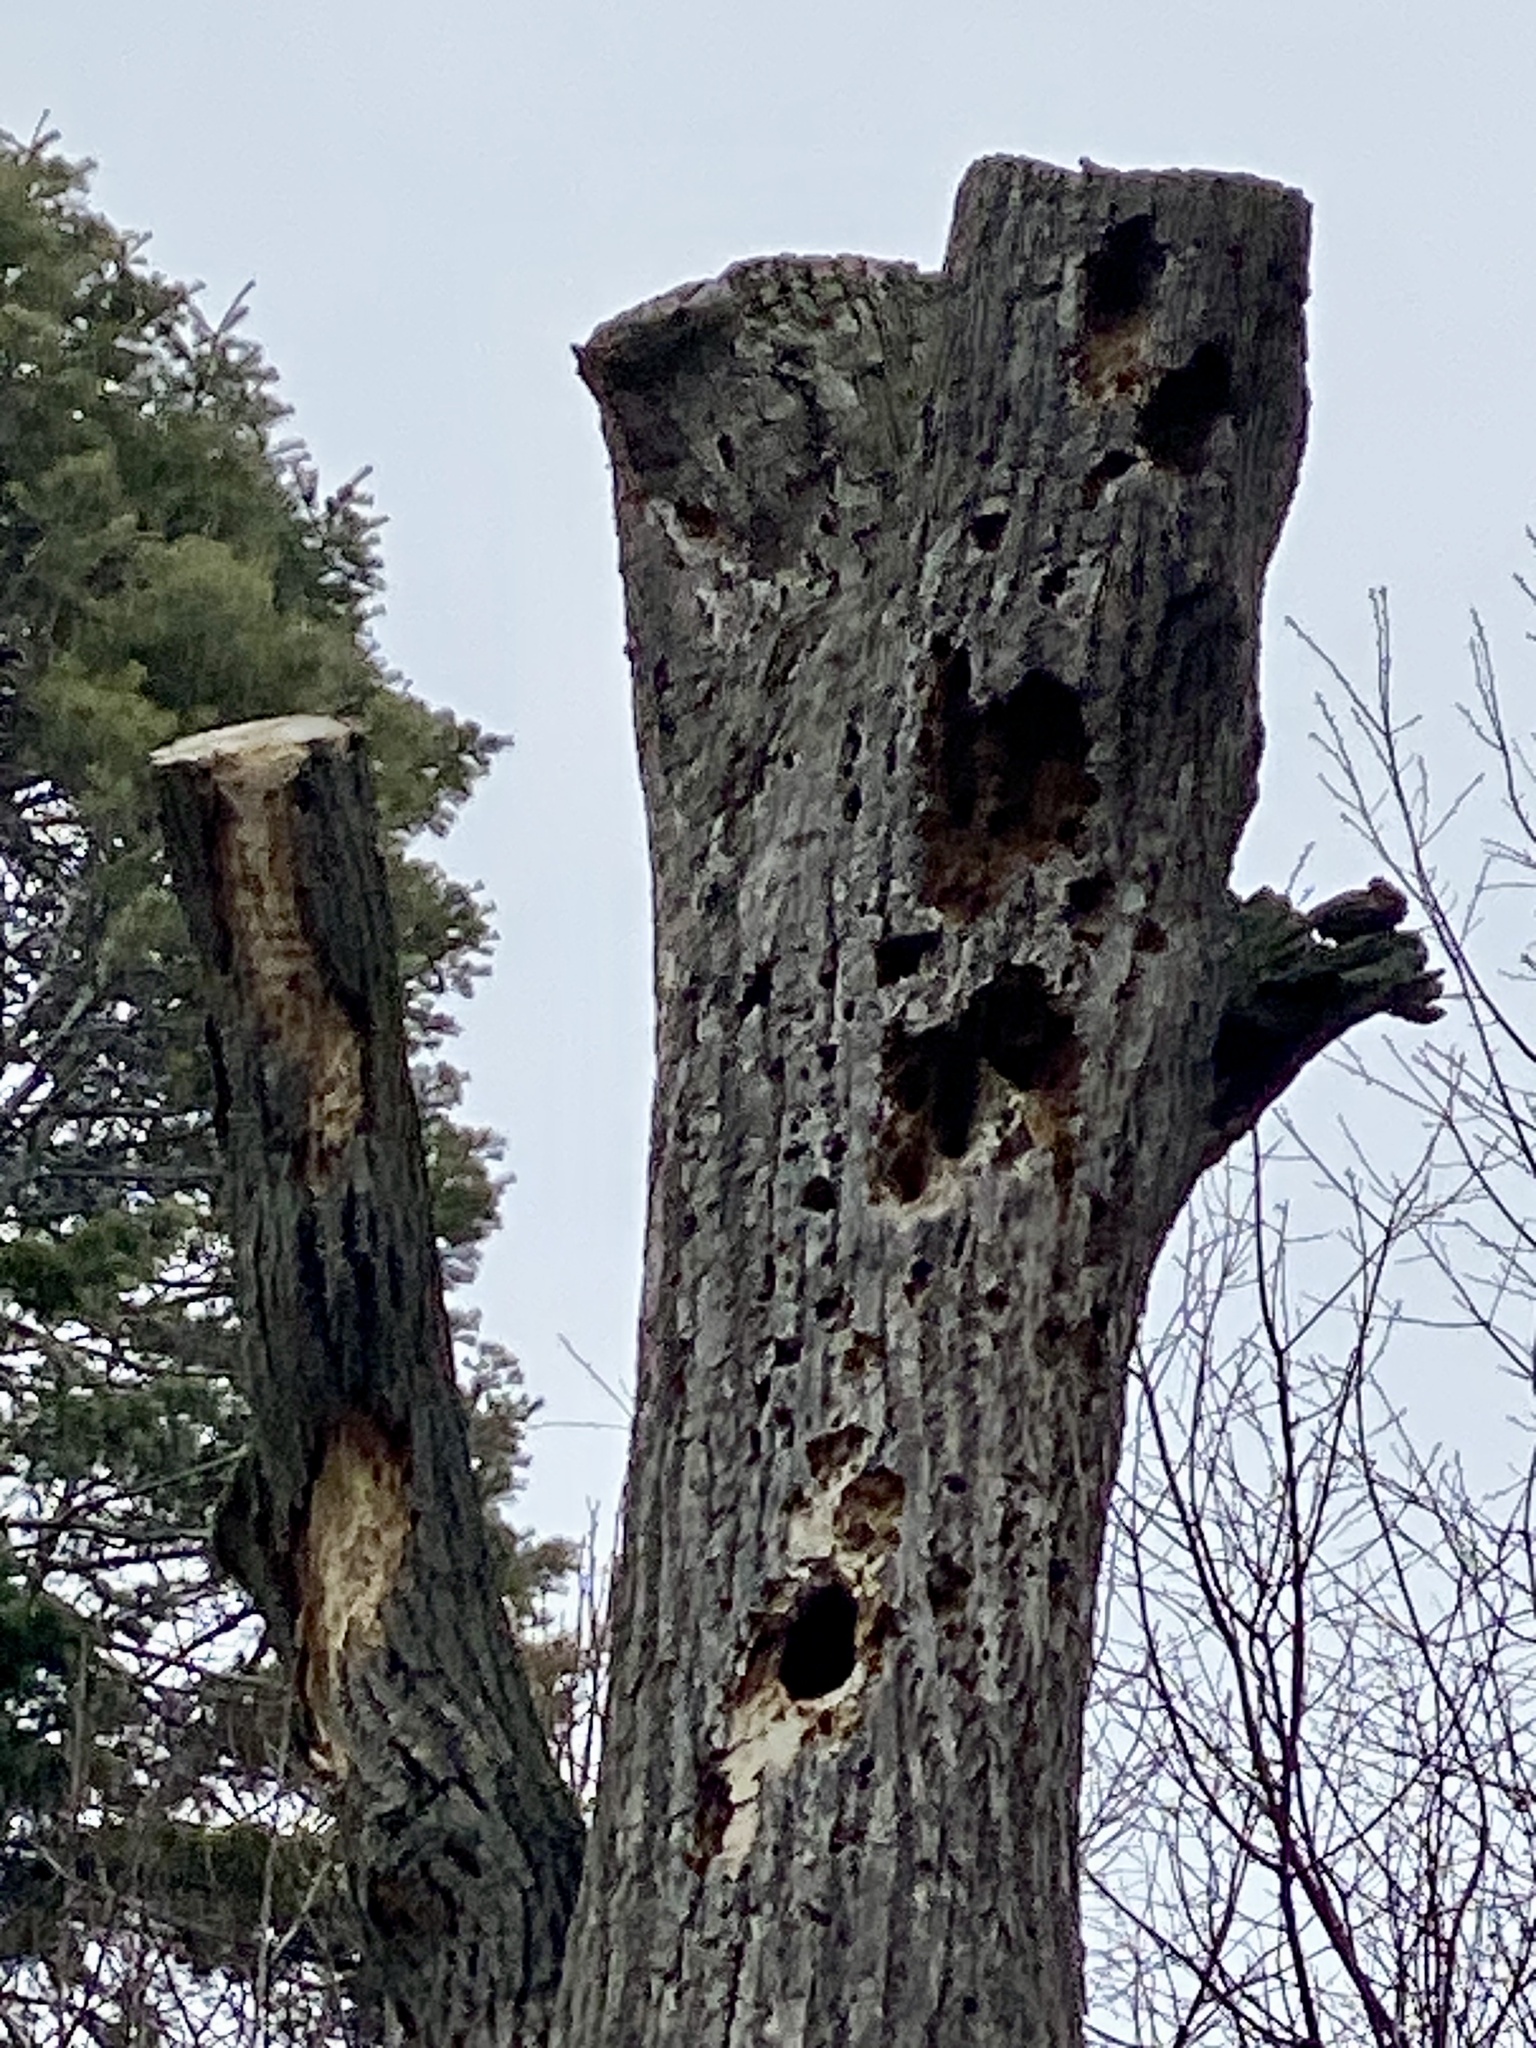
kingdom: Animalia
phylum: Chordata
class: Aves
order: Piciformes
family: Picidae
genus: Dryocopus
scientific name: Dryocopus pileatus
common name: Pileated woodpecker
